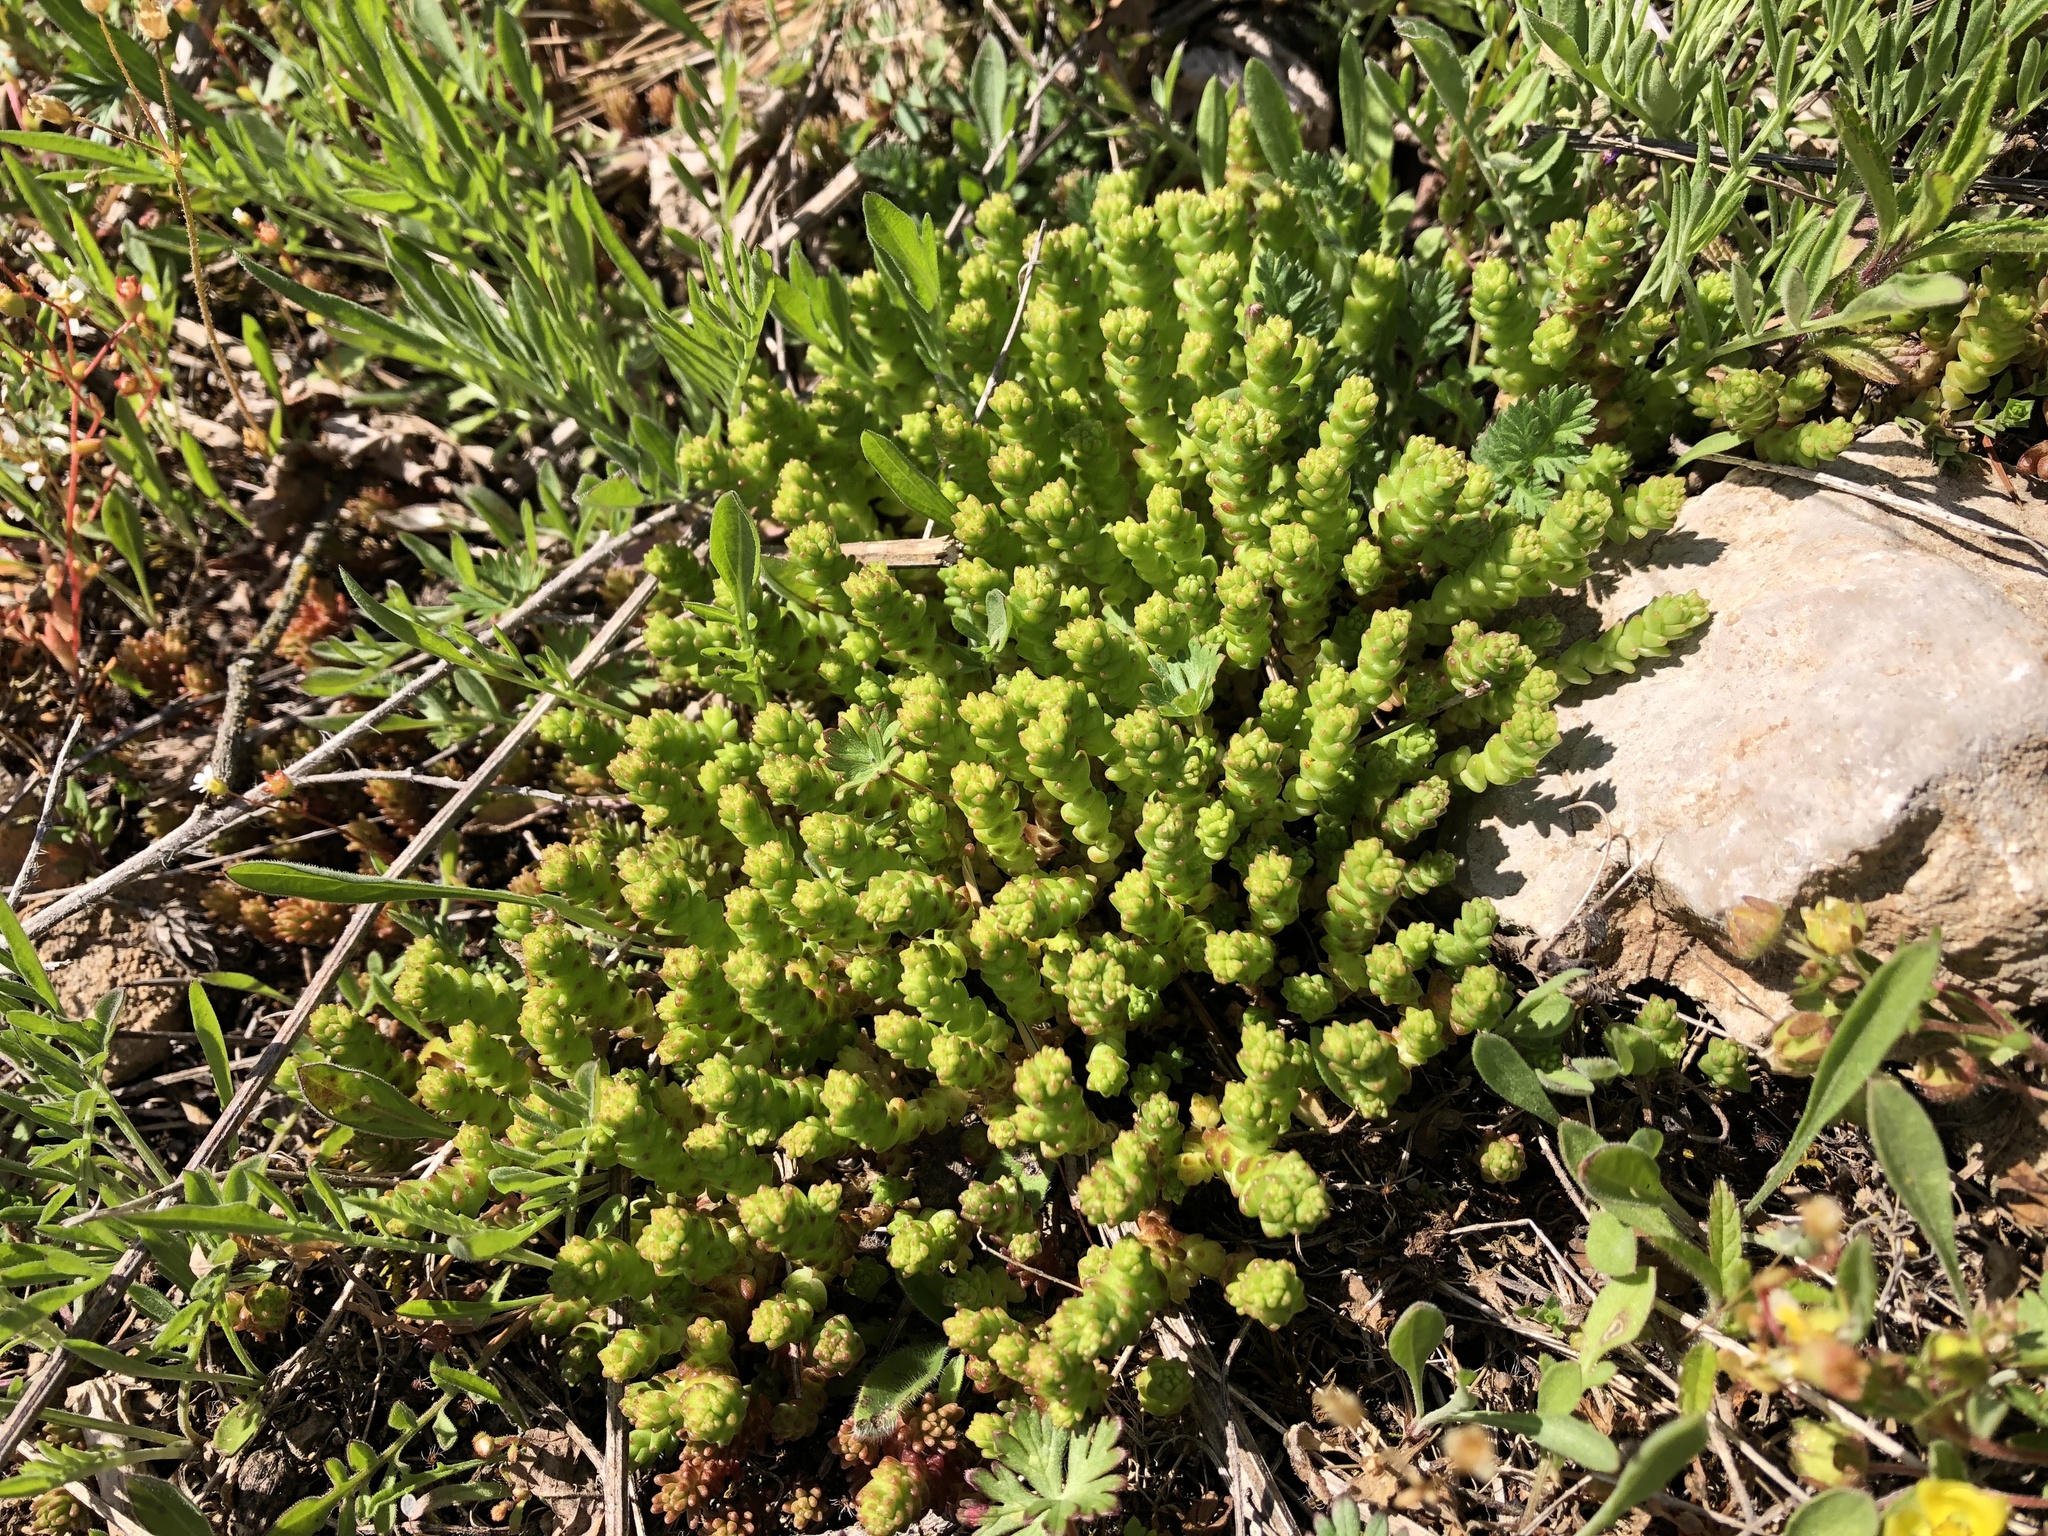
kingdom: Plantae
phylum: Tracheophyta
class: Magnoliopsida
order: Saxifragales
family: Crassulaceae
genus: Sedum
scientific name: Sedum acre
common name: Biting stonecrop
